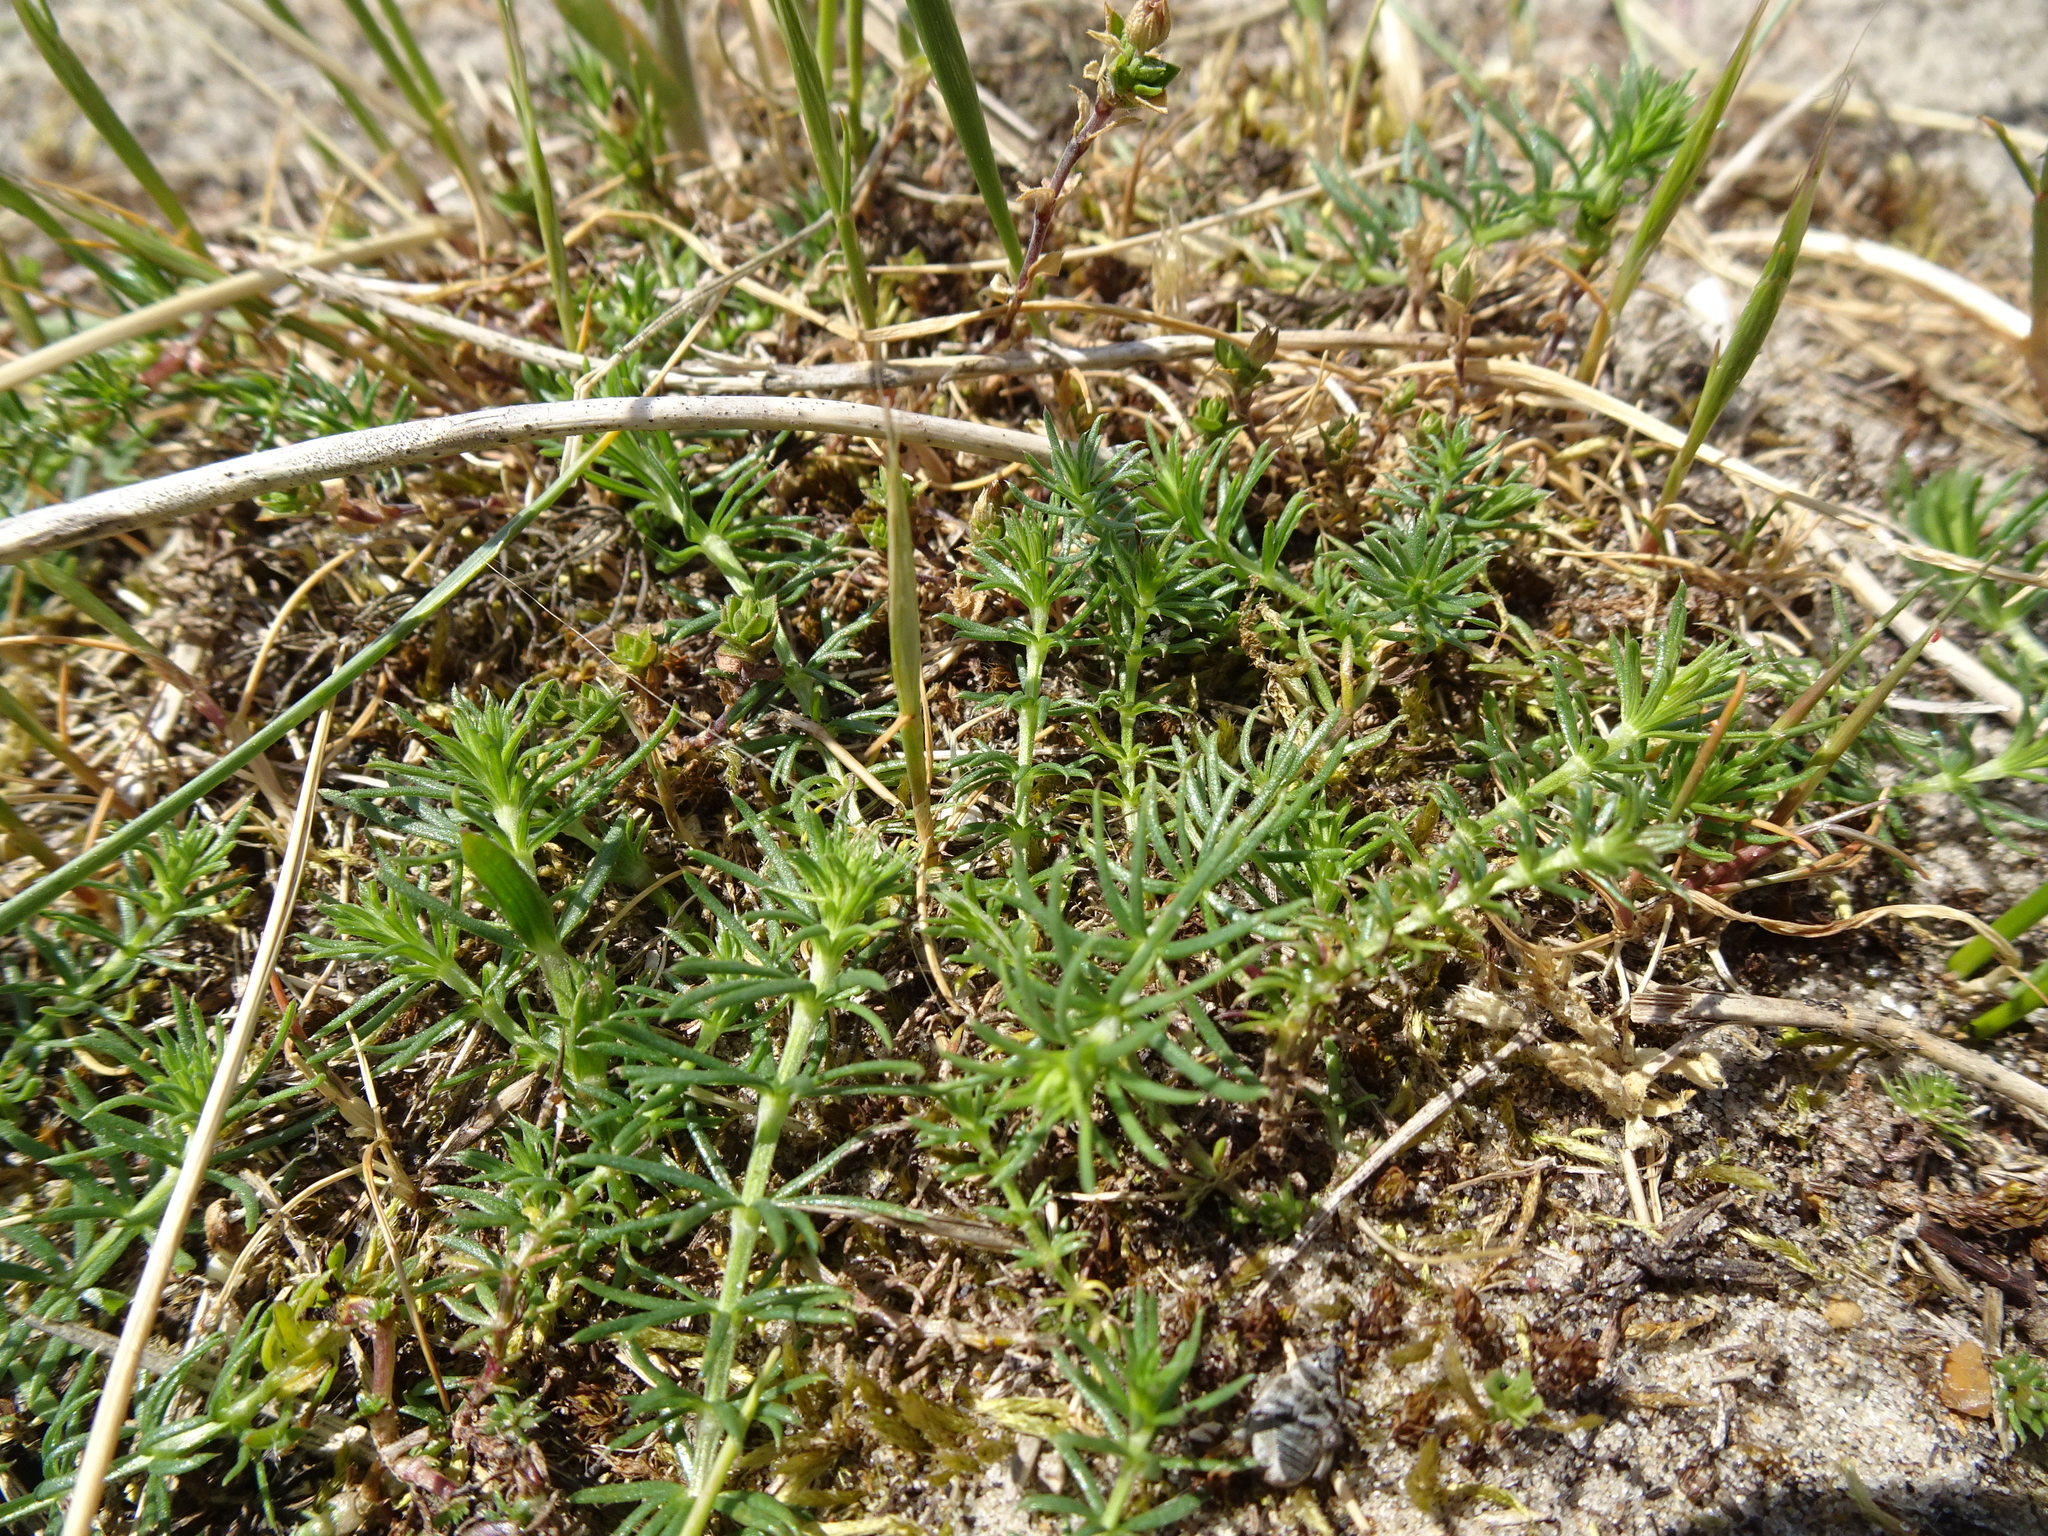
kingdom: Plantae
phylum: Tracheophyta
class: Magnoliopsida
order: Gentianales
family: Rubiaceae
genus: Galium
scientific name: Galium verum
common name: Lady's bedstraw
